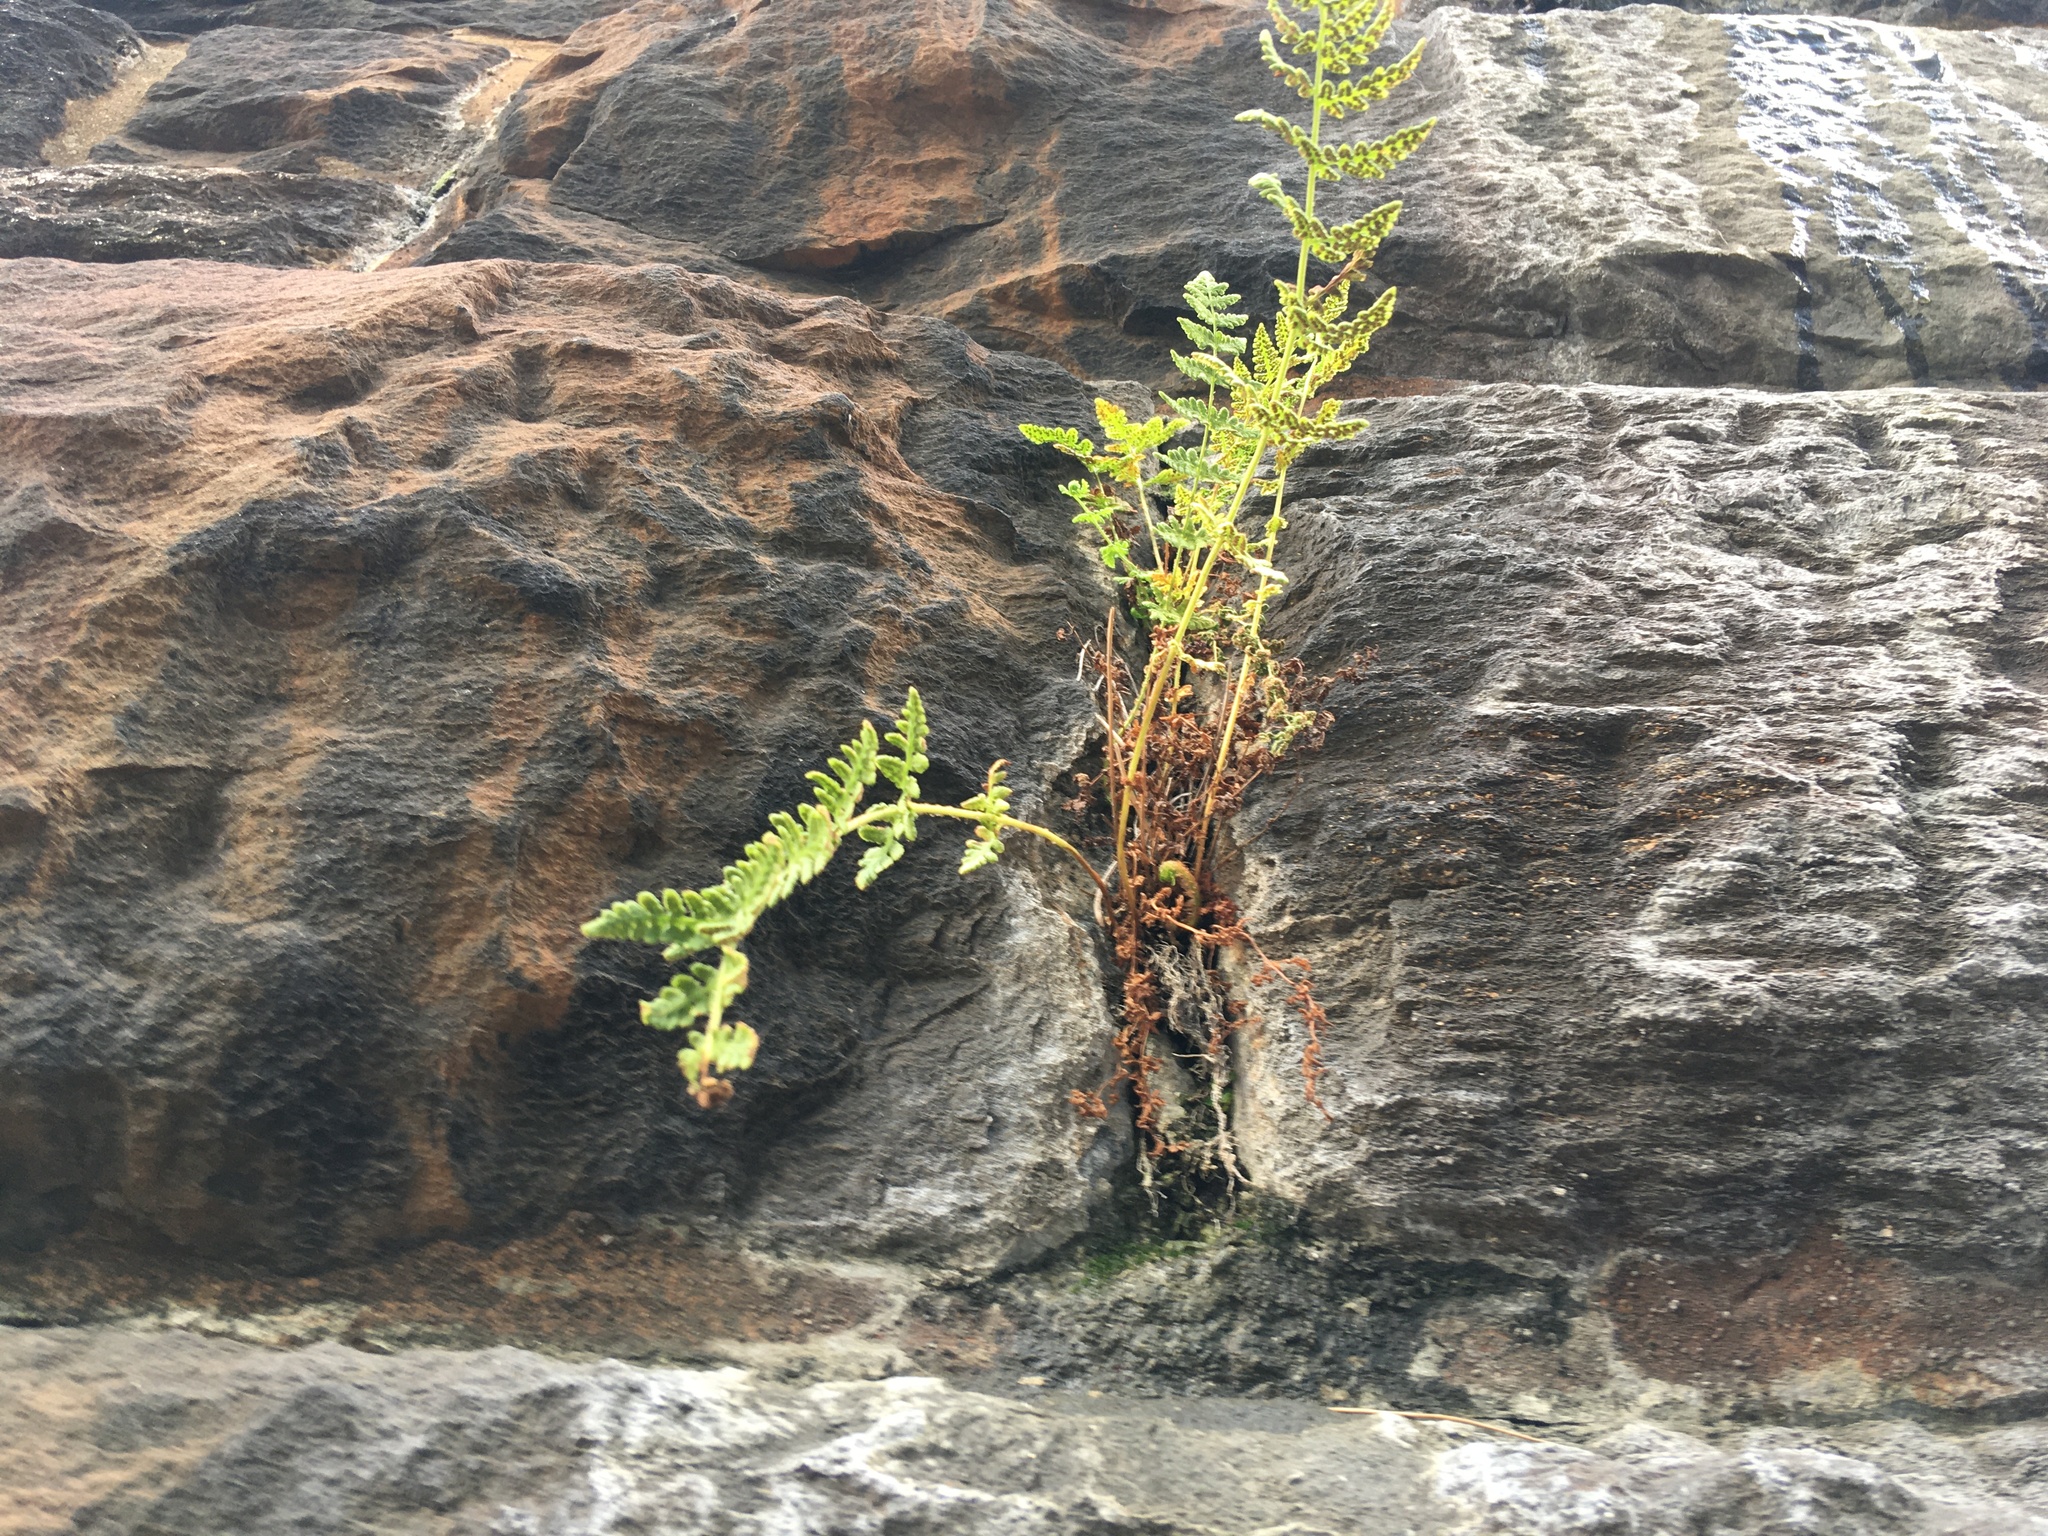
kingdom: Plantae
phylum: Tracheophyta
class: Polypodiopsida
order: Polypodiales
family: Woodsiaceae
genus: Physematium
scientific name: Physematium obtusum
